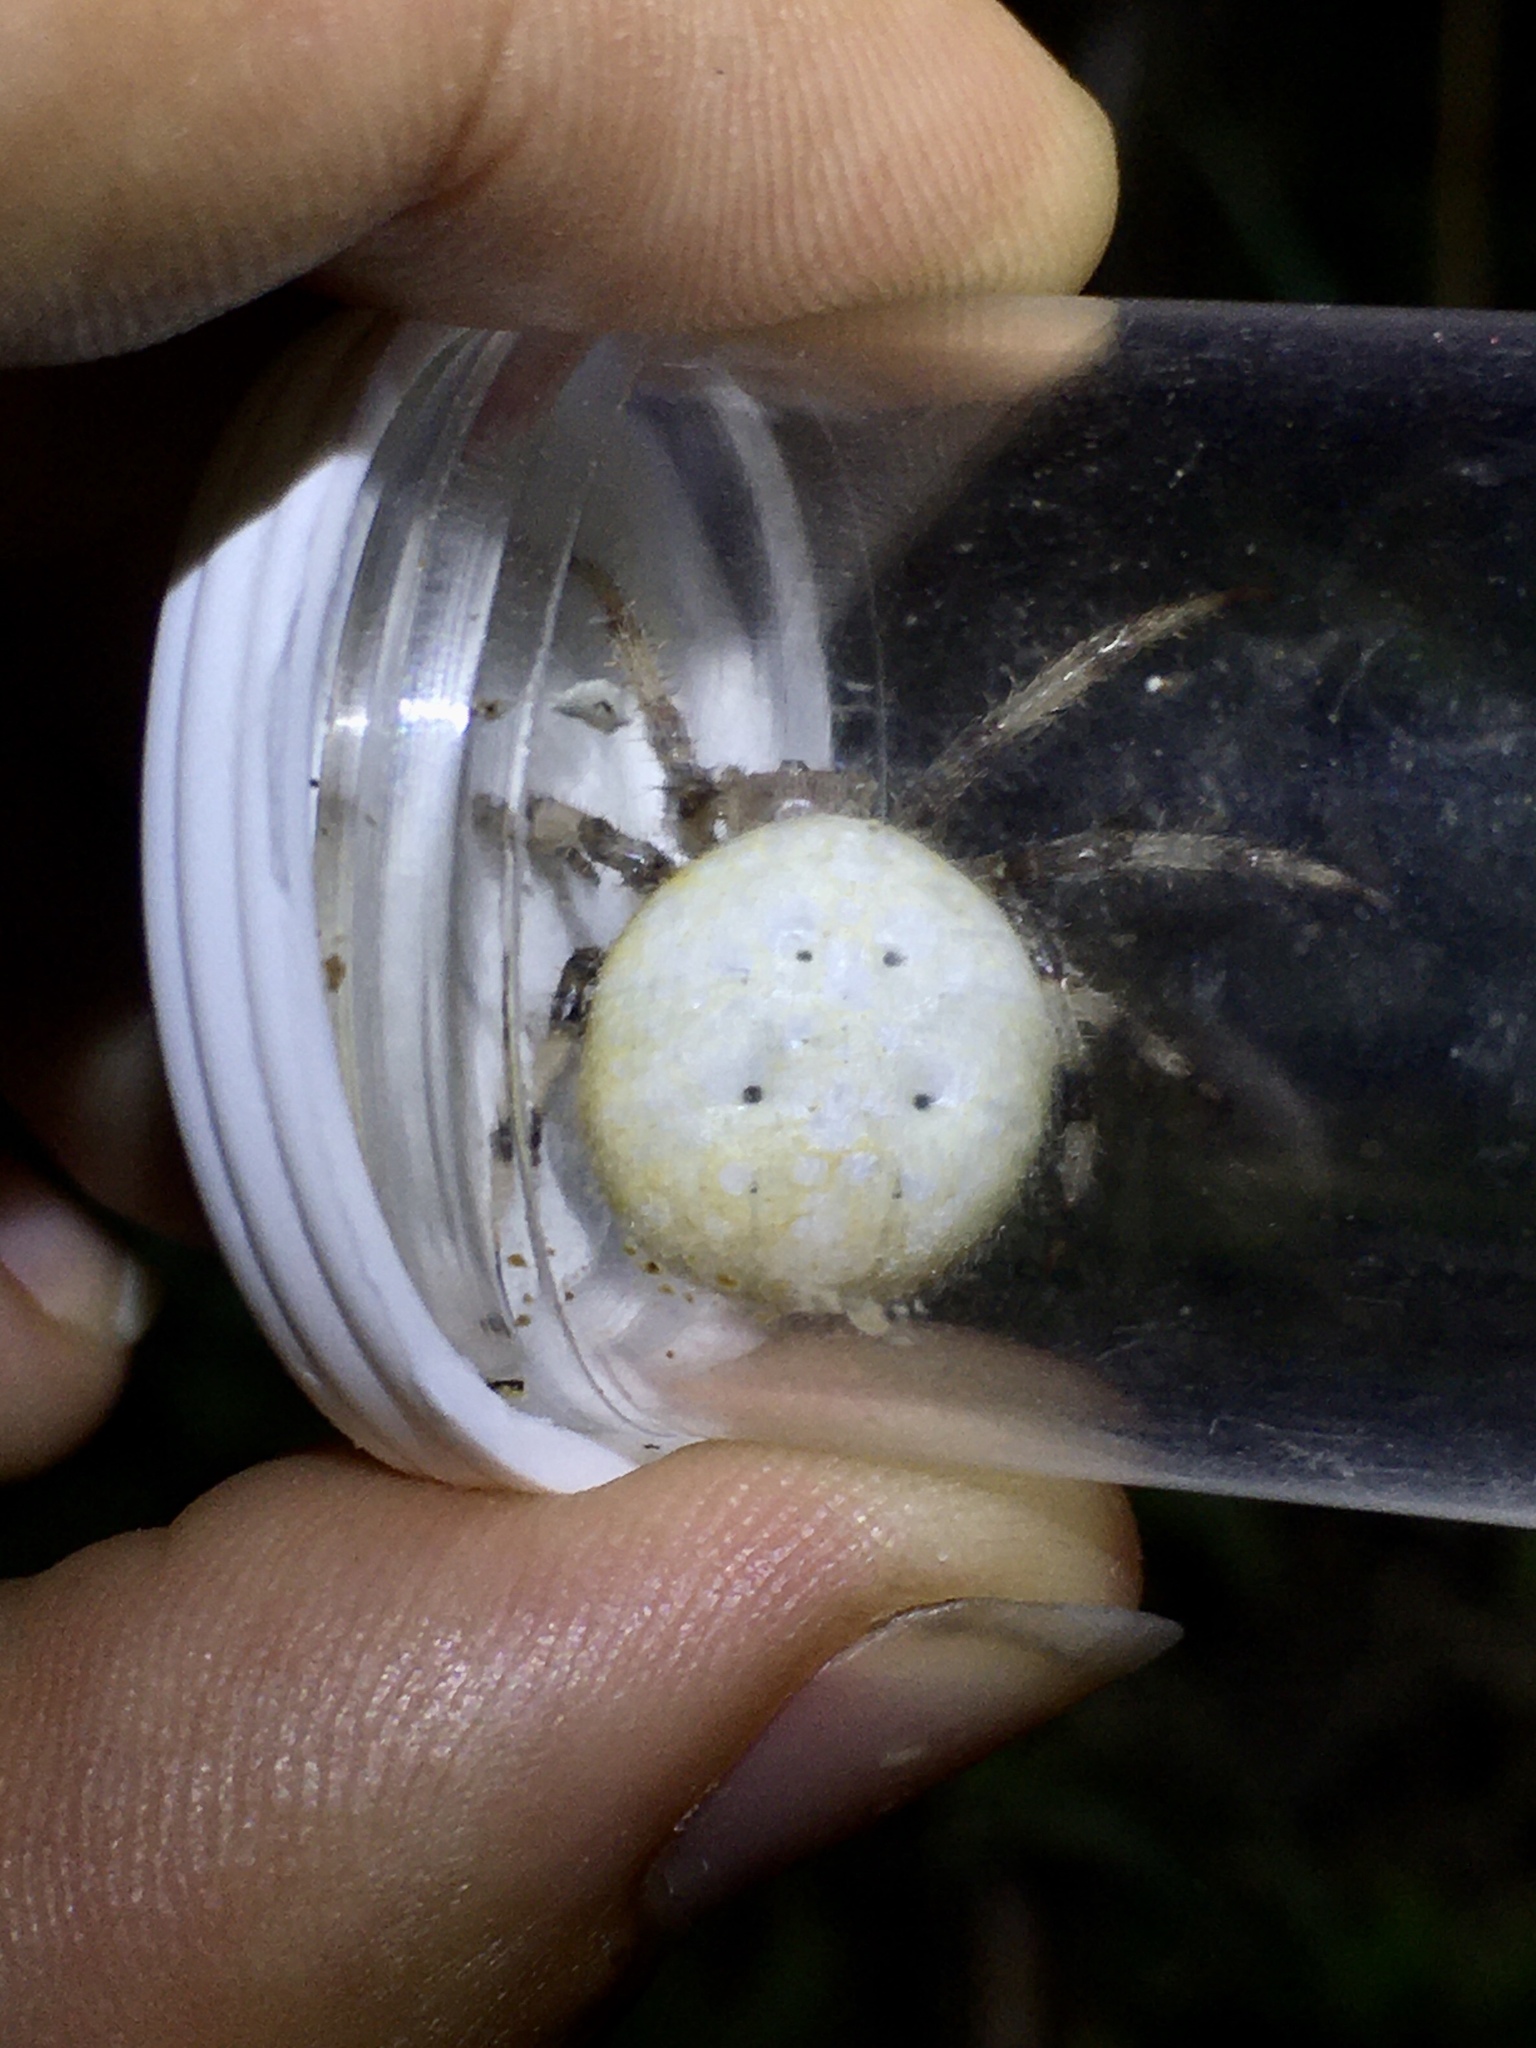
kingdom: Animalia
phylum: Arthropoda
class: Arachnida
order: Araneae
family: Araneidae
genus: Araneus
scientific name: Araneus trifolium
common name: Shamrock orbweaver
